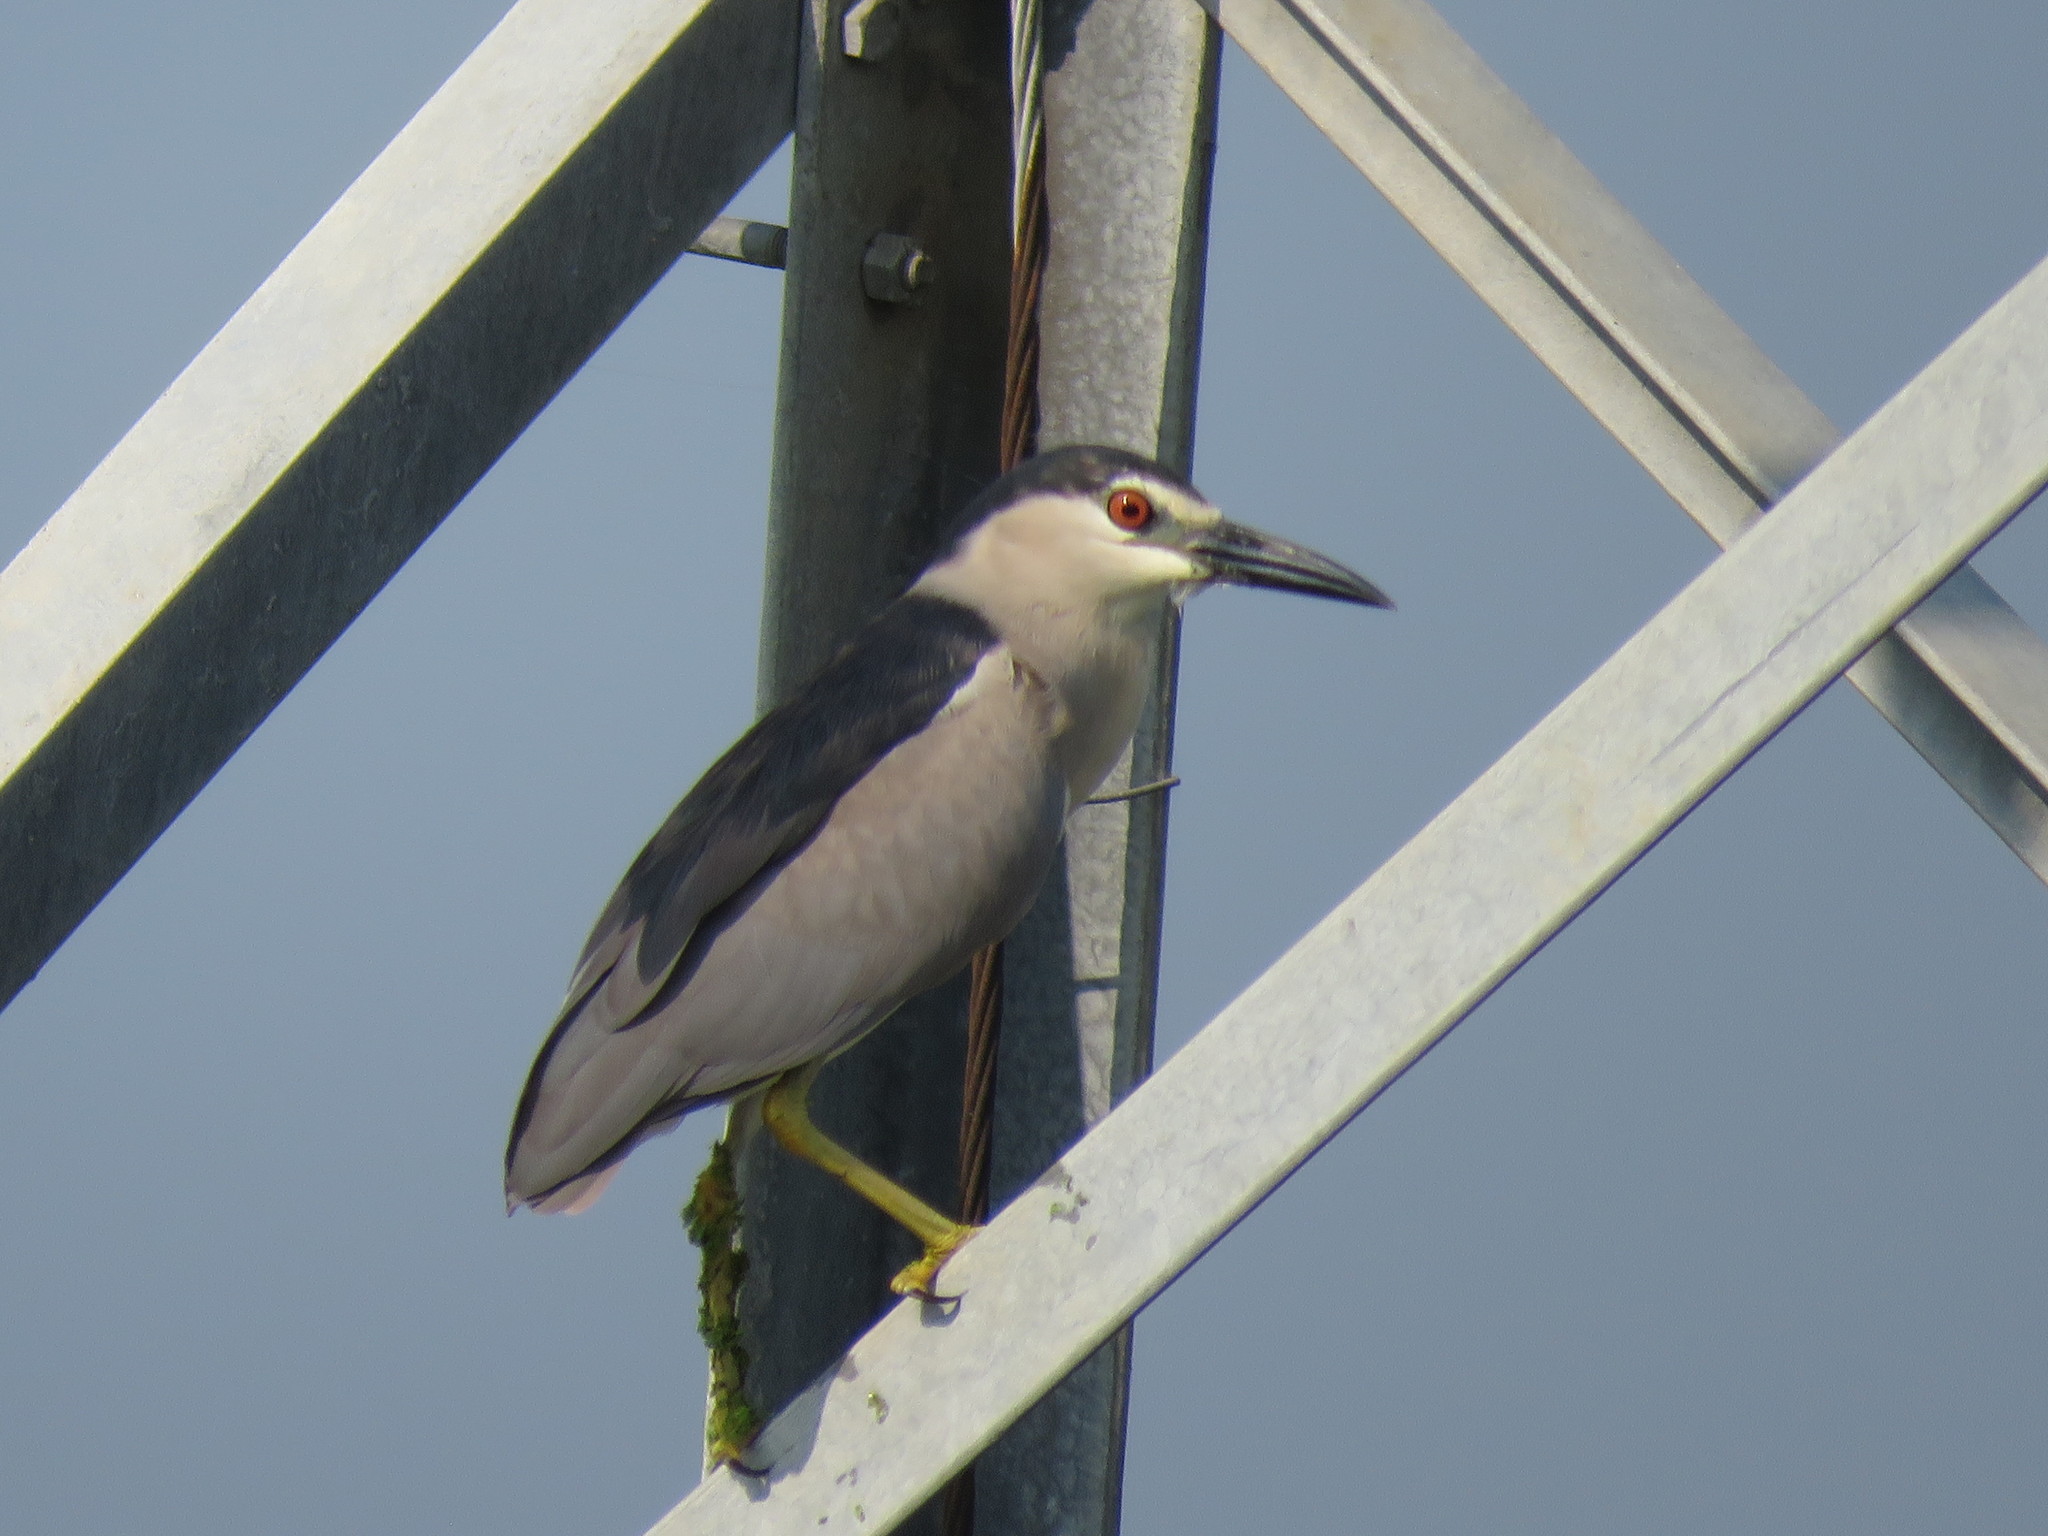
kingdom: Animalia
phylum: Chordata
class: Aves
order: Pelecaniformes
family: Ardeidae
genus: Nycticorax
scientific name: Nycticorax nycticorax
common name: Black-crowned night heron
